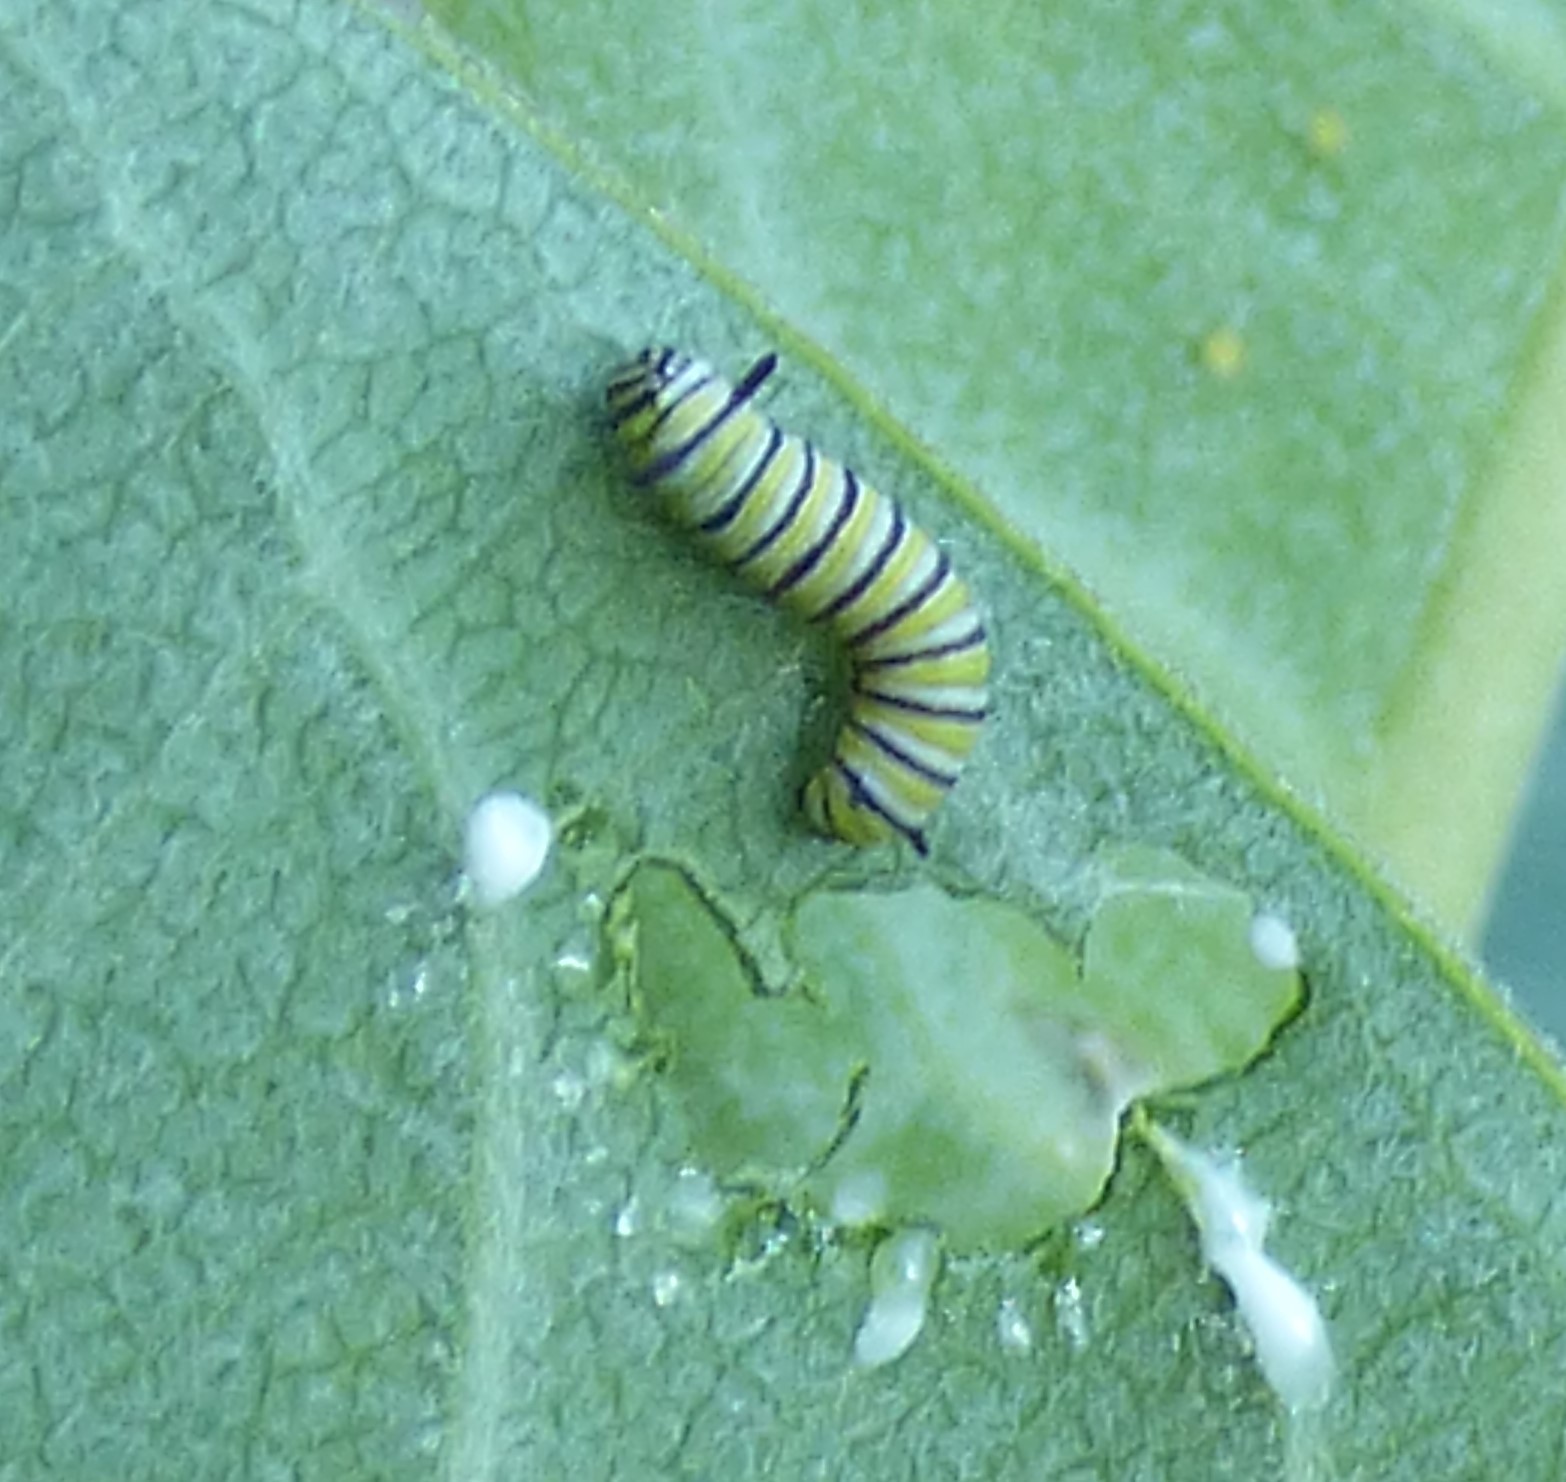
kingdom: Animalia
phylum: Arthropoda
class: Insecta
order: Lepidoptera
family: Nymphalidae
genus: Danaus
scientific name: Danaus plexippus
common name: Monarch
